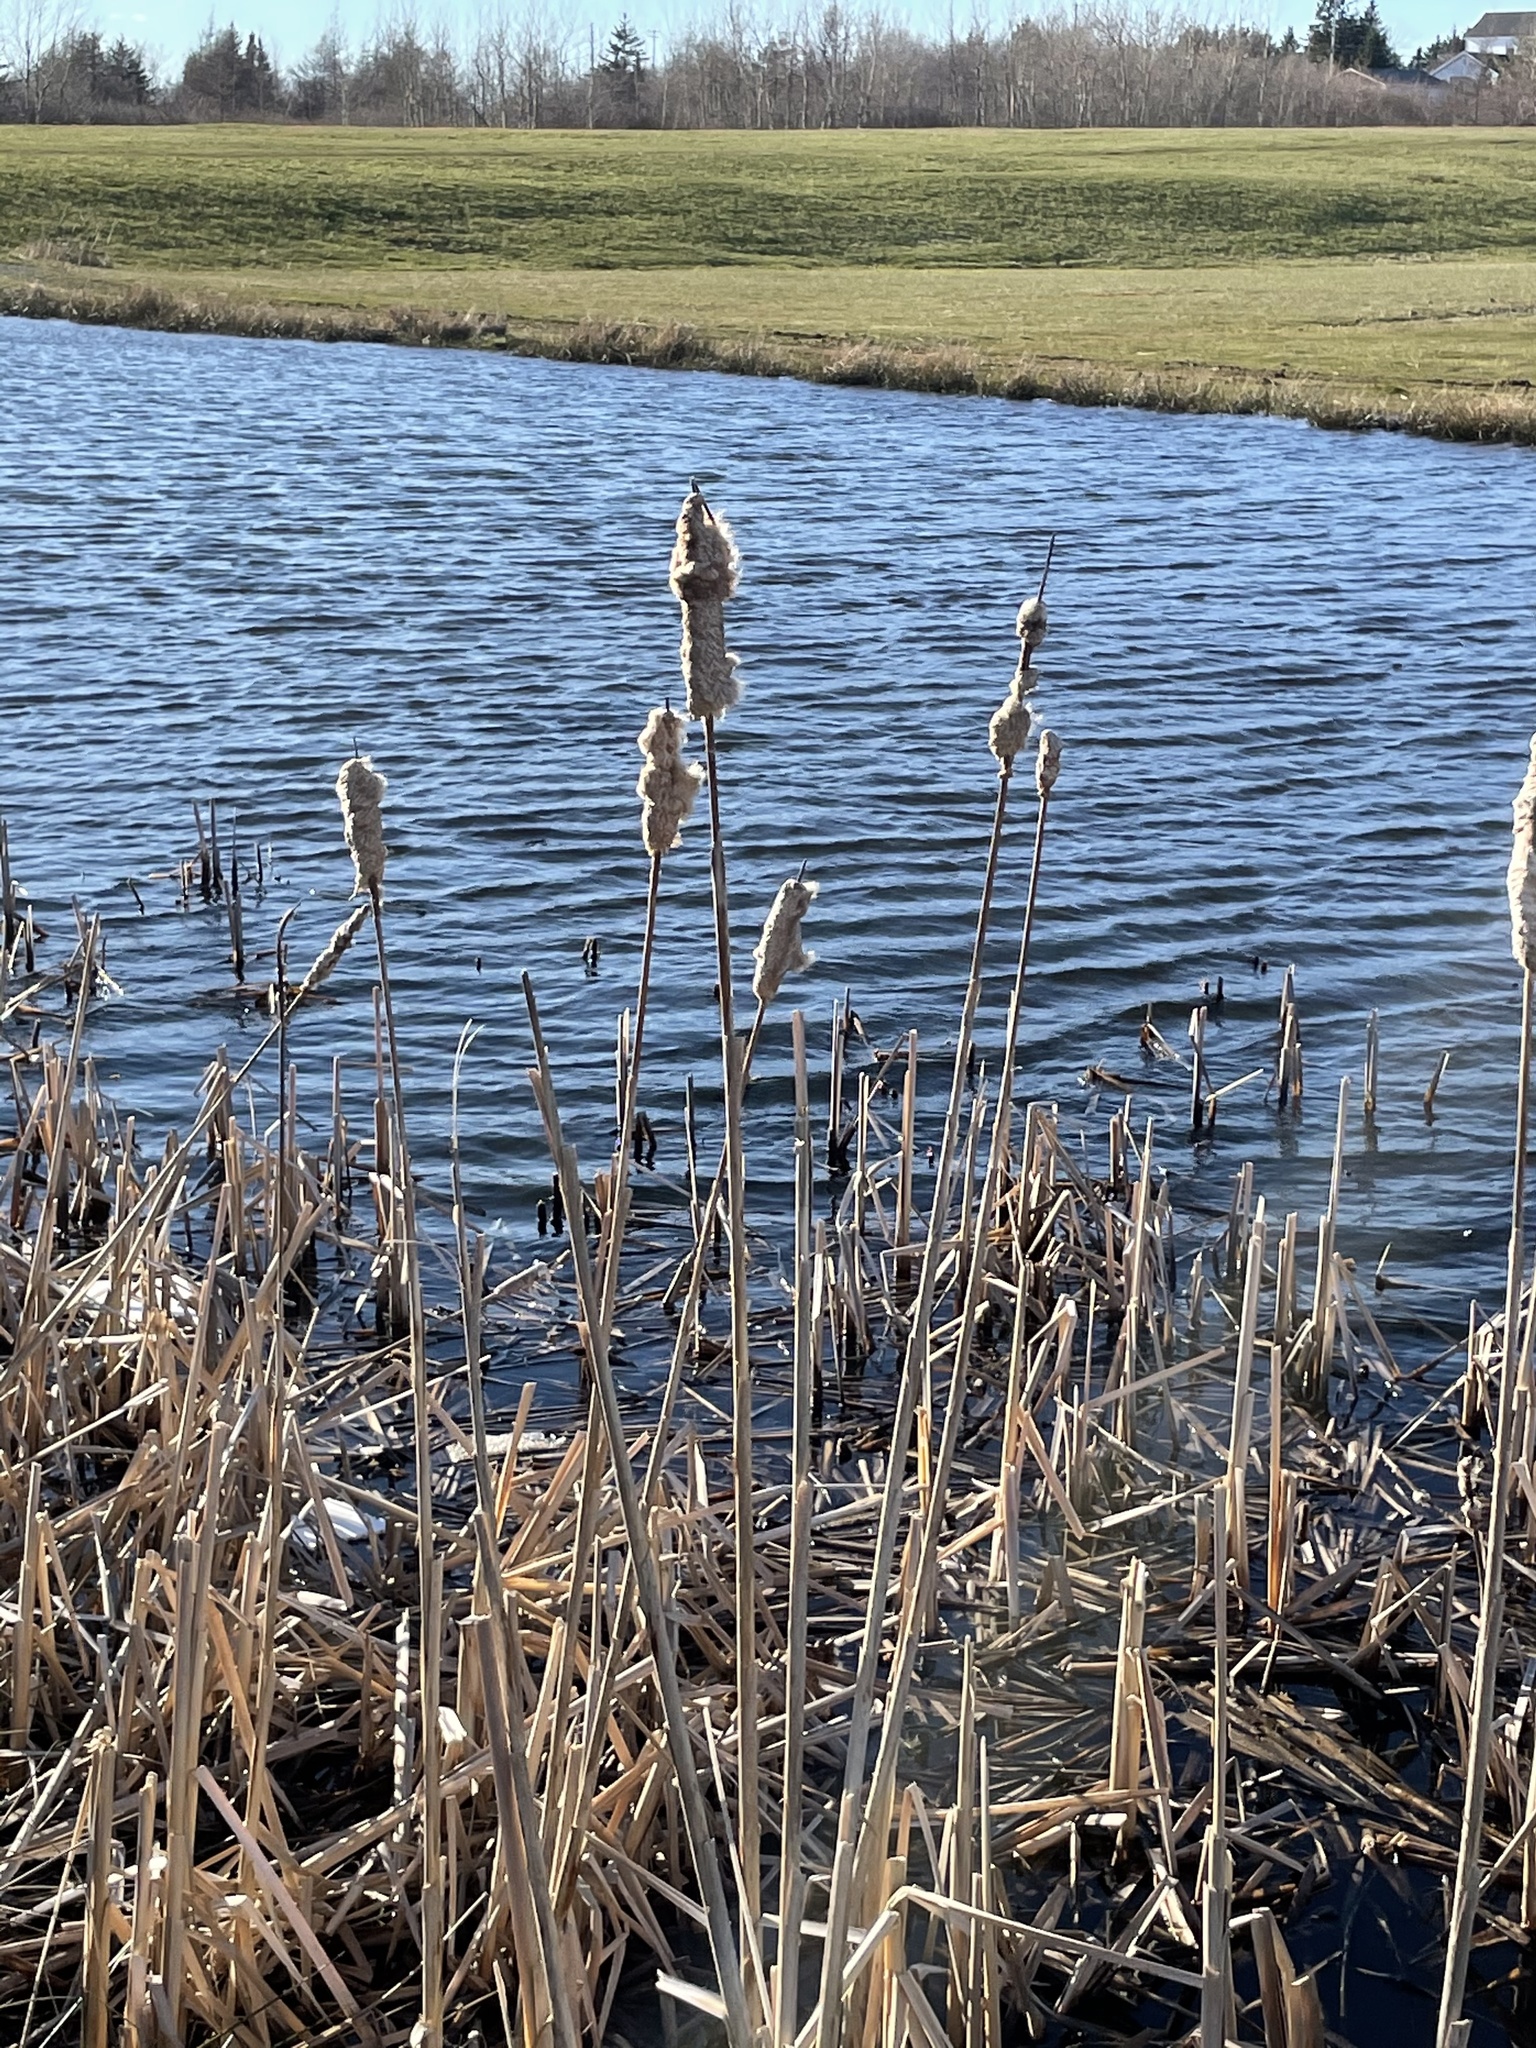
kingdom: Plantae
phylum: Tracheophyta
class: Liliopsida
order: Poales
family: Typhaceae
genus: Typha
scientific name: Typha latifolia
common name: Broadleaf cattail
